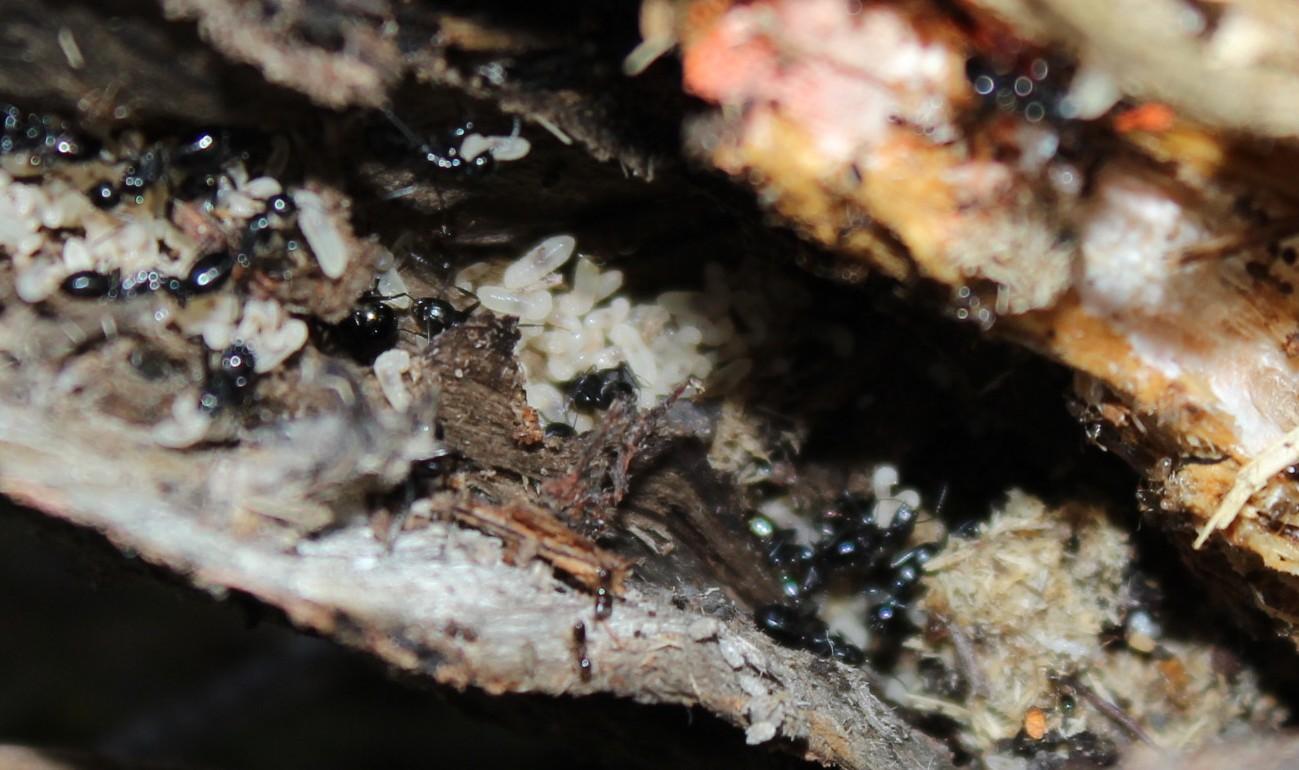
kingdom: Animalia
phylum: Arthropoda
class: Insecta
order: Hymenoptera
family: Formicidae
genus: Crematogaster
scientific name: Crematogaster peringueyi
